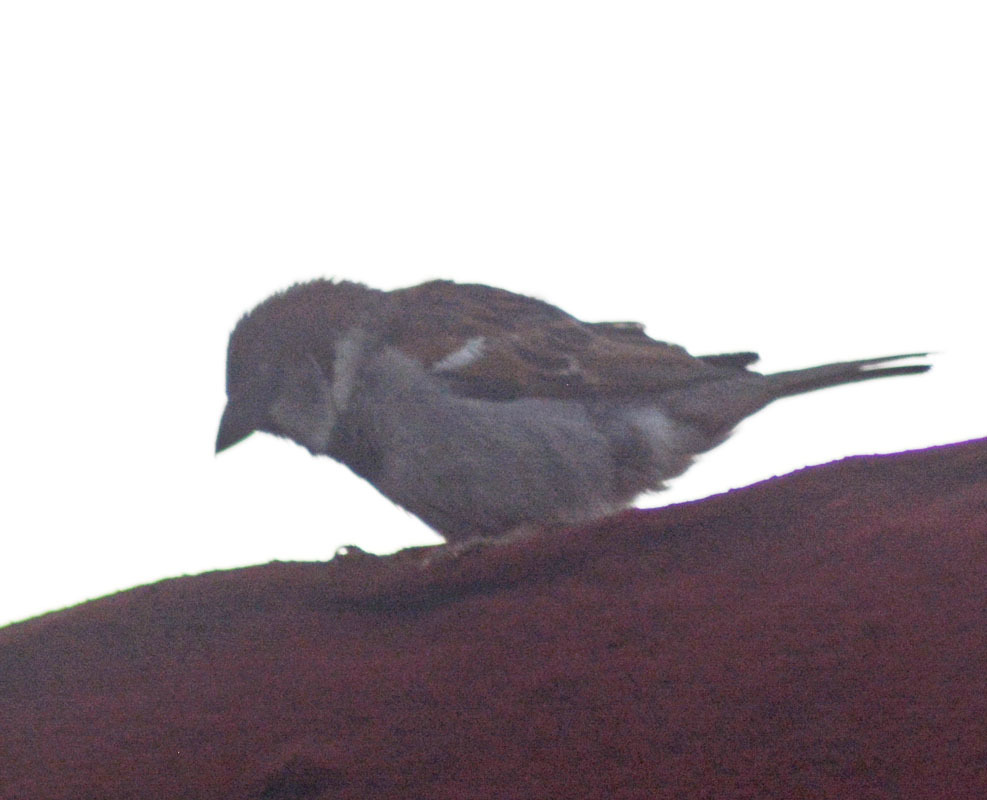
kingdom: Animalia
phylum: Chordata
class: Aves
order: Passeriformes
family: Passeridae
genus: Passer
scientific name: Passer domesticus
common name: House sparrow
